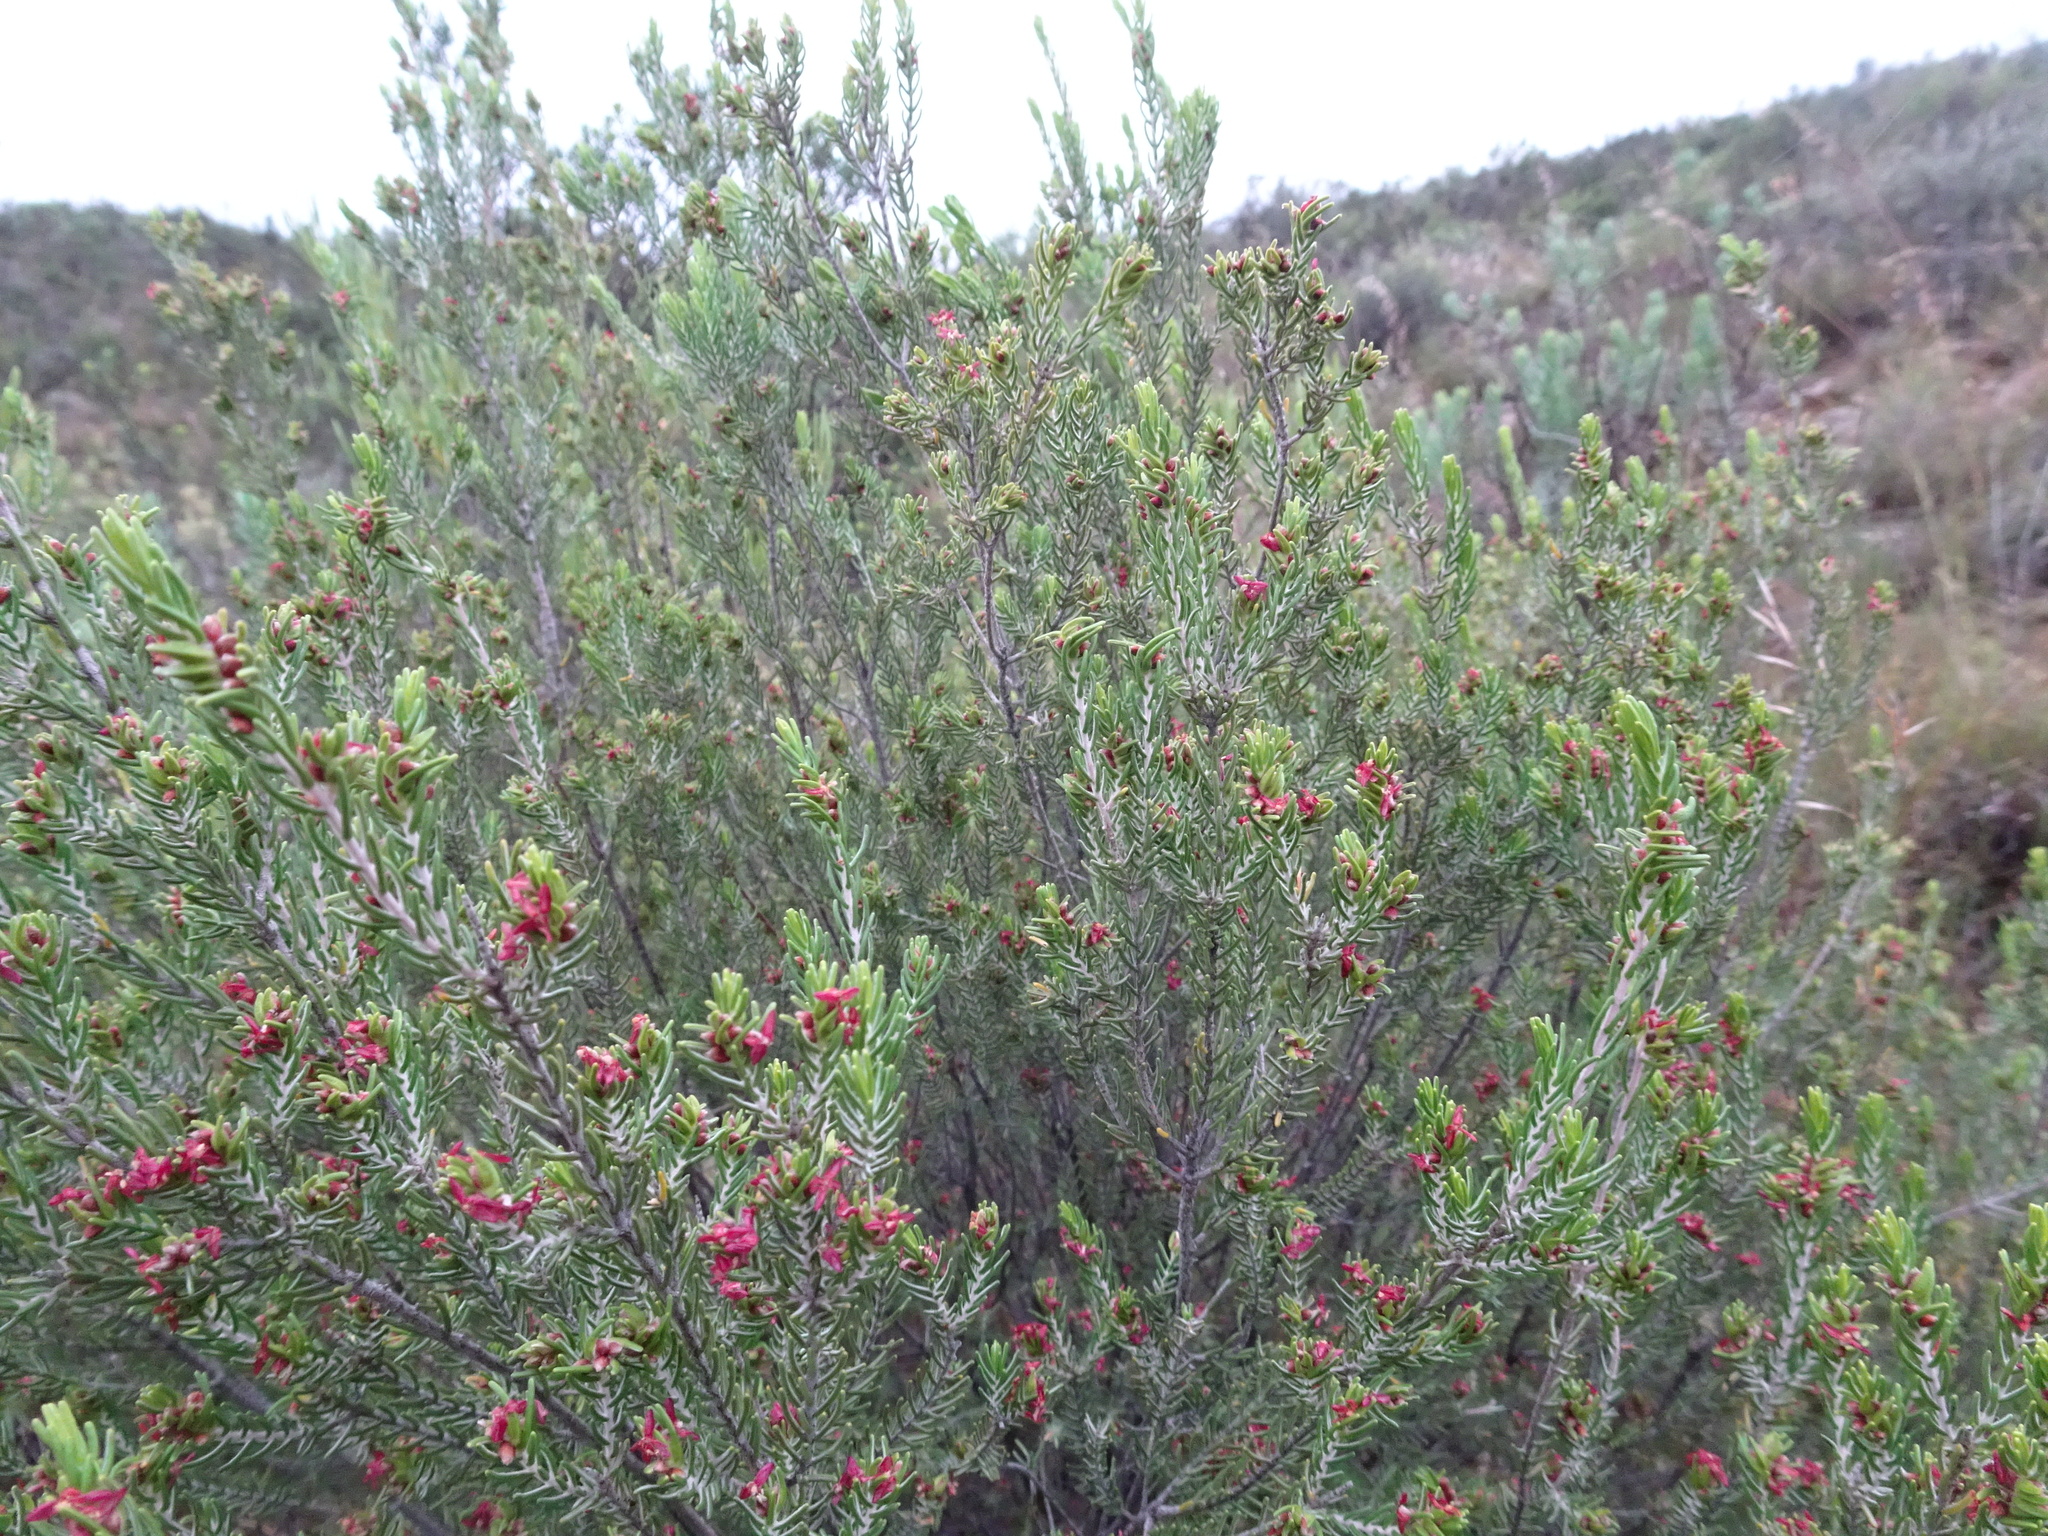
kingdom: Plantae
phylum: Tracheophyta
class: Magnoliopsida
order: Malvales
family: Thymelaeaceae
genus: Passerina
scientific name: Passerina obtusifolia
